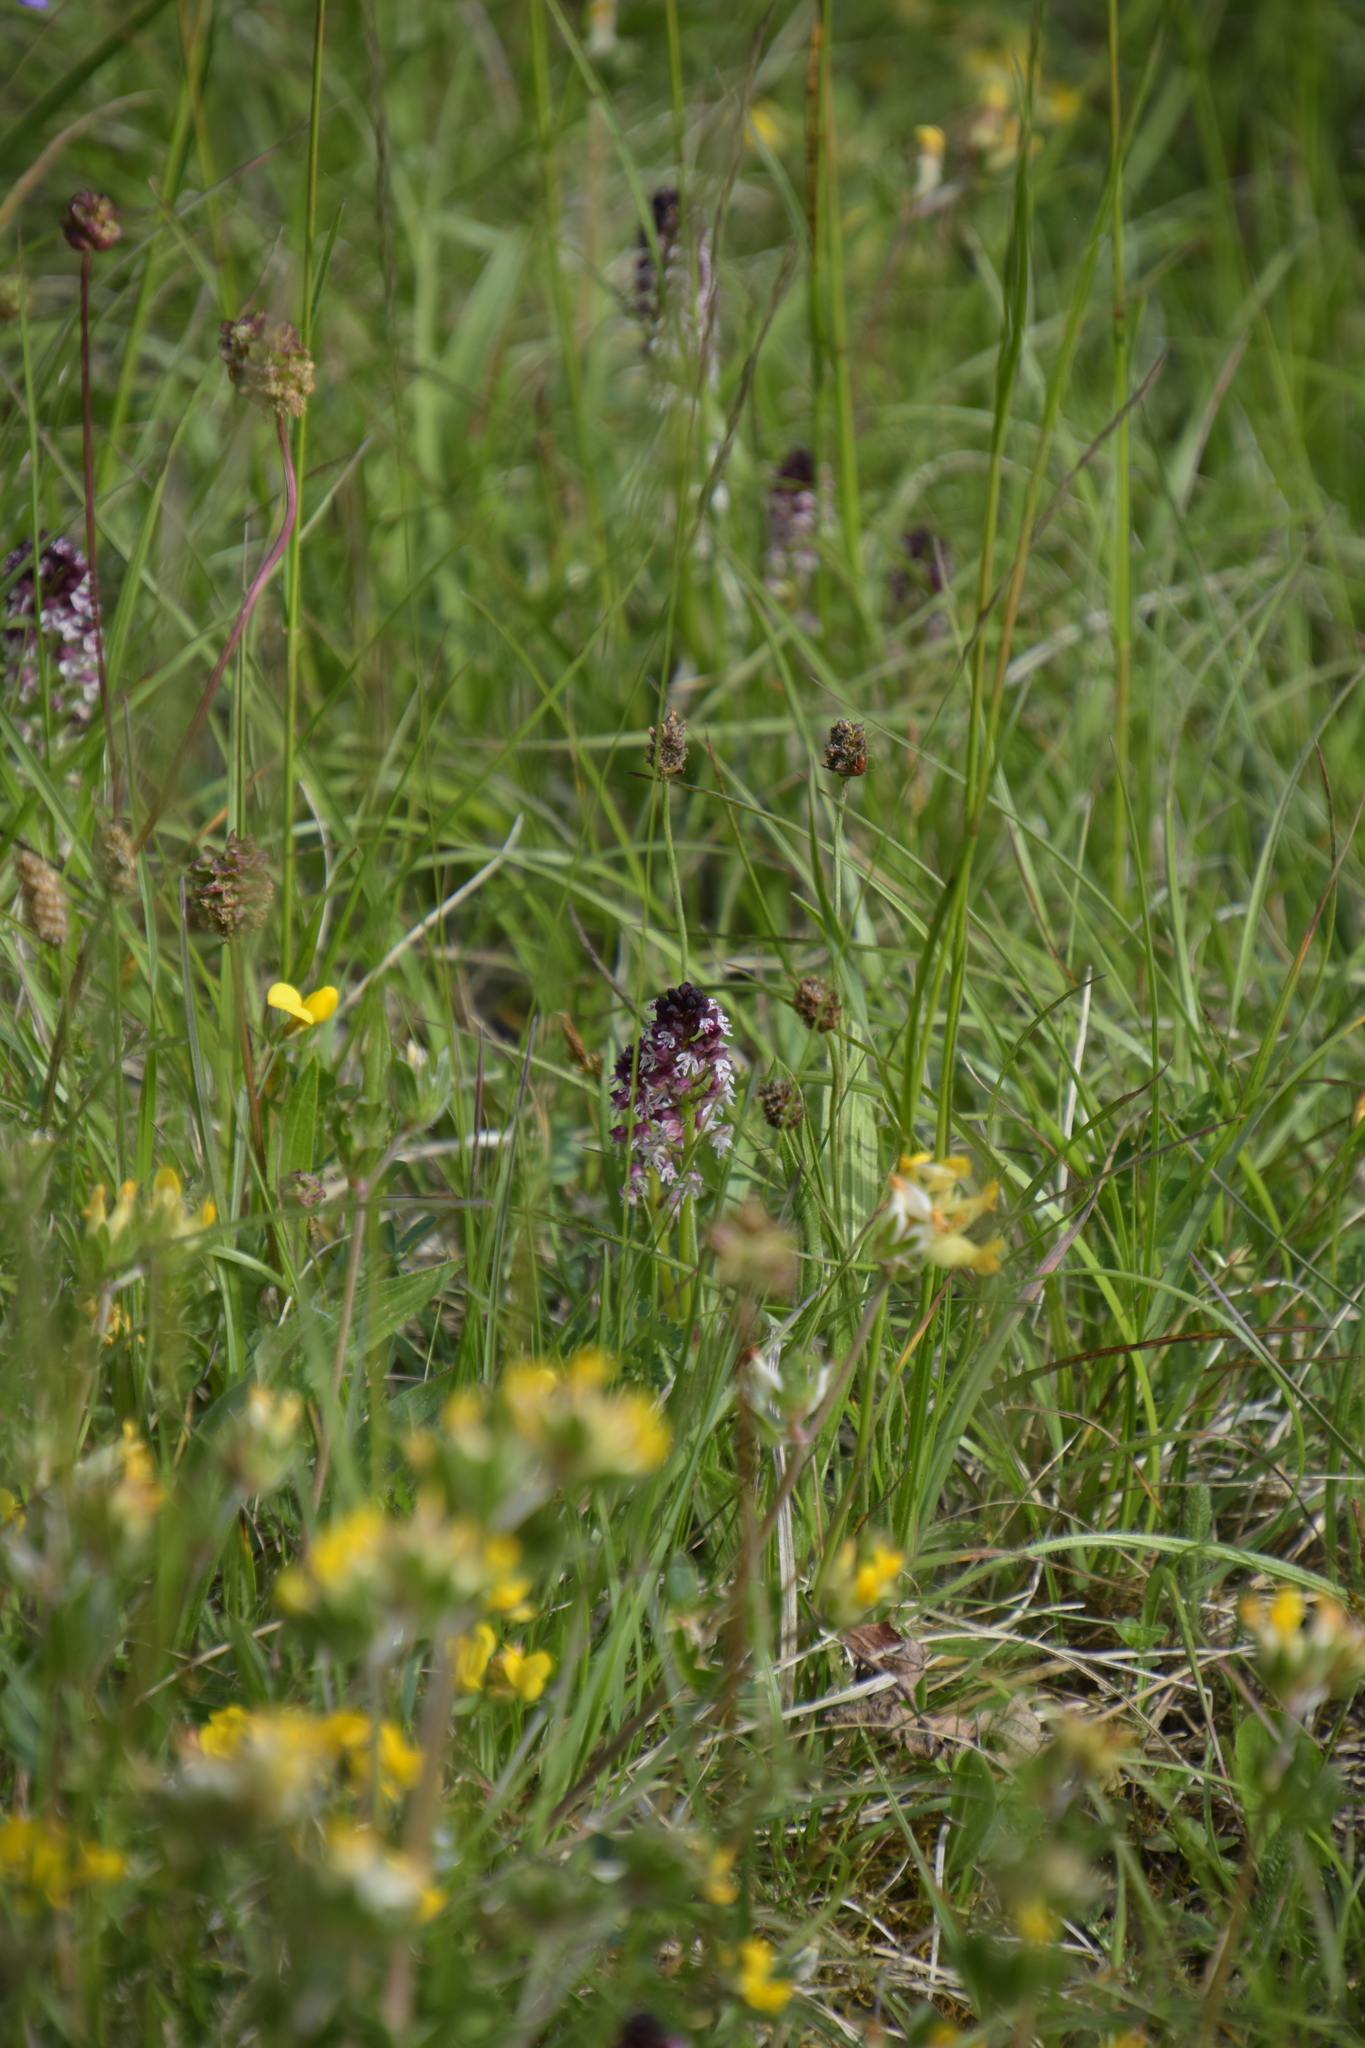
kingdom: Plantae
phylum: Tracheophyta
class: Liliopsida
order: Asparagales
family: Orchidaceae
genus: Neotinea
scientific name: Neotinea ustulata
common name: Burnt orchid
